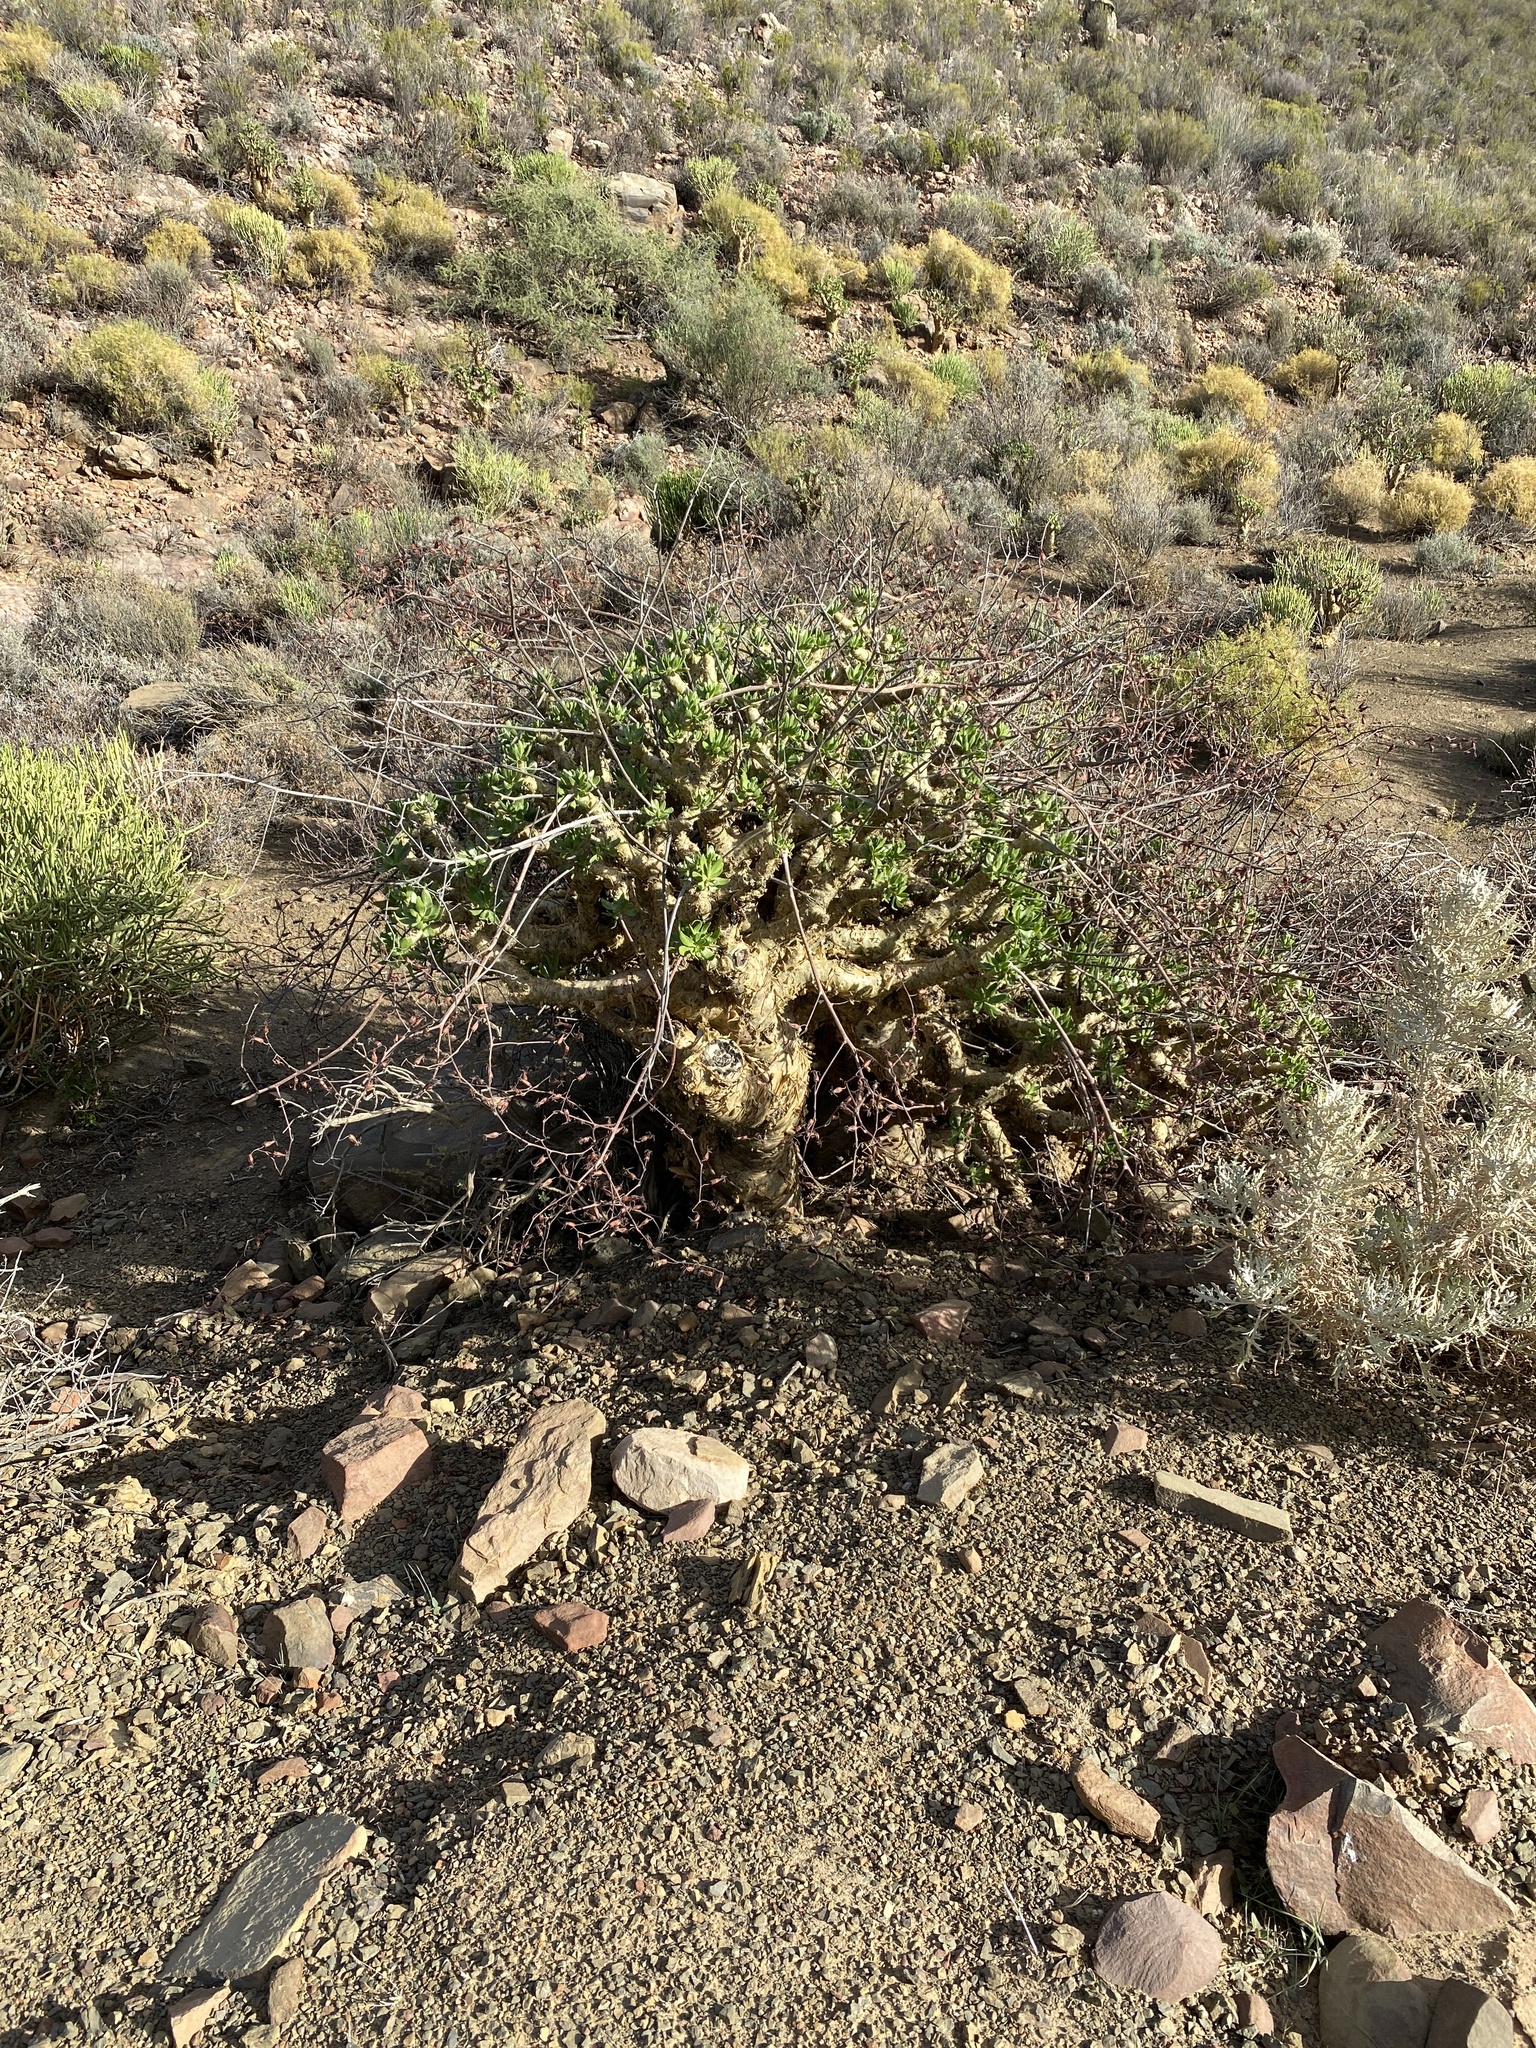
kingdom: Plantae
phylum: Tracheophyta
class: Magnoliopsida
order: Saxifragales
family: Crassulaceae
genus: Tylecodon
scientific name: Tylecodon paniculatus
